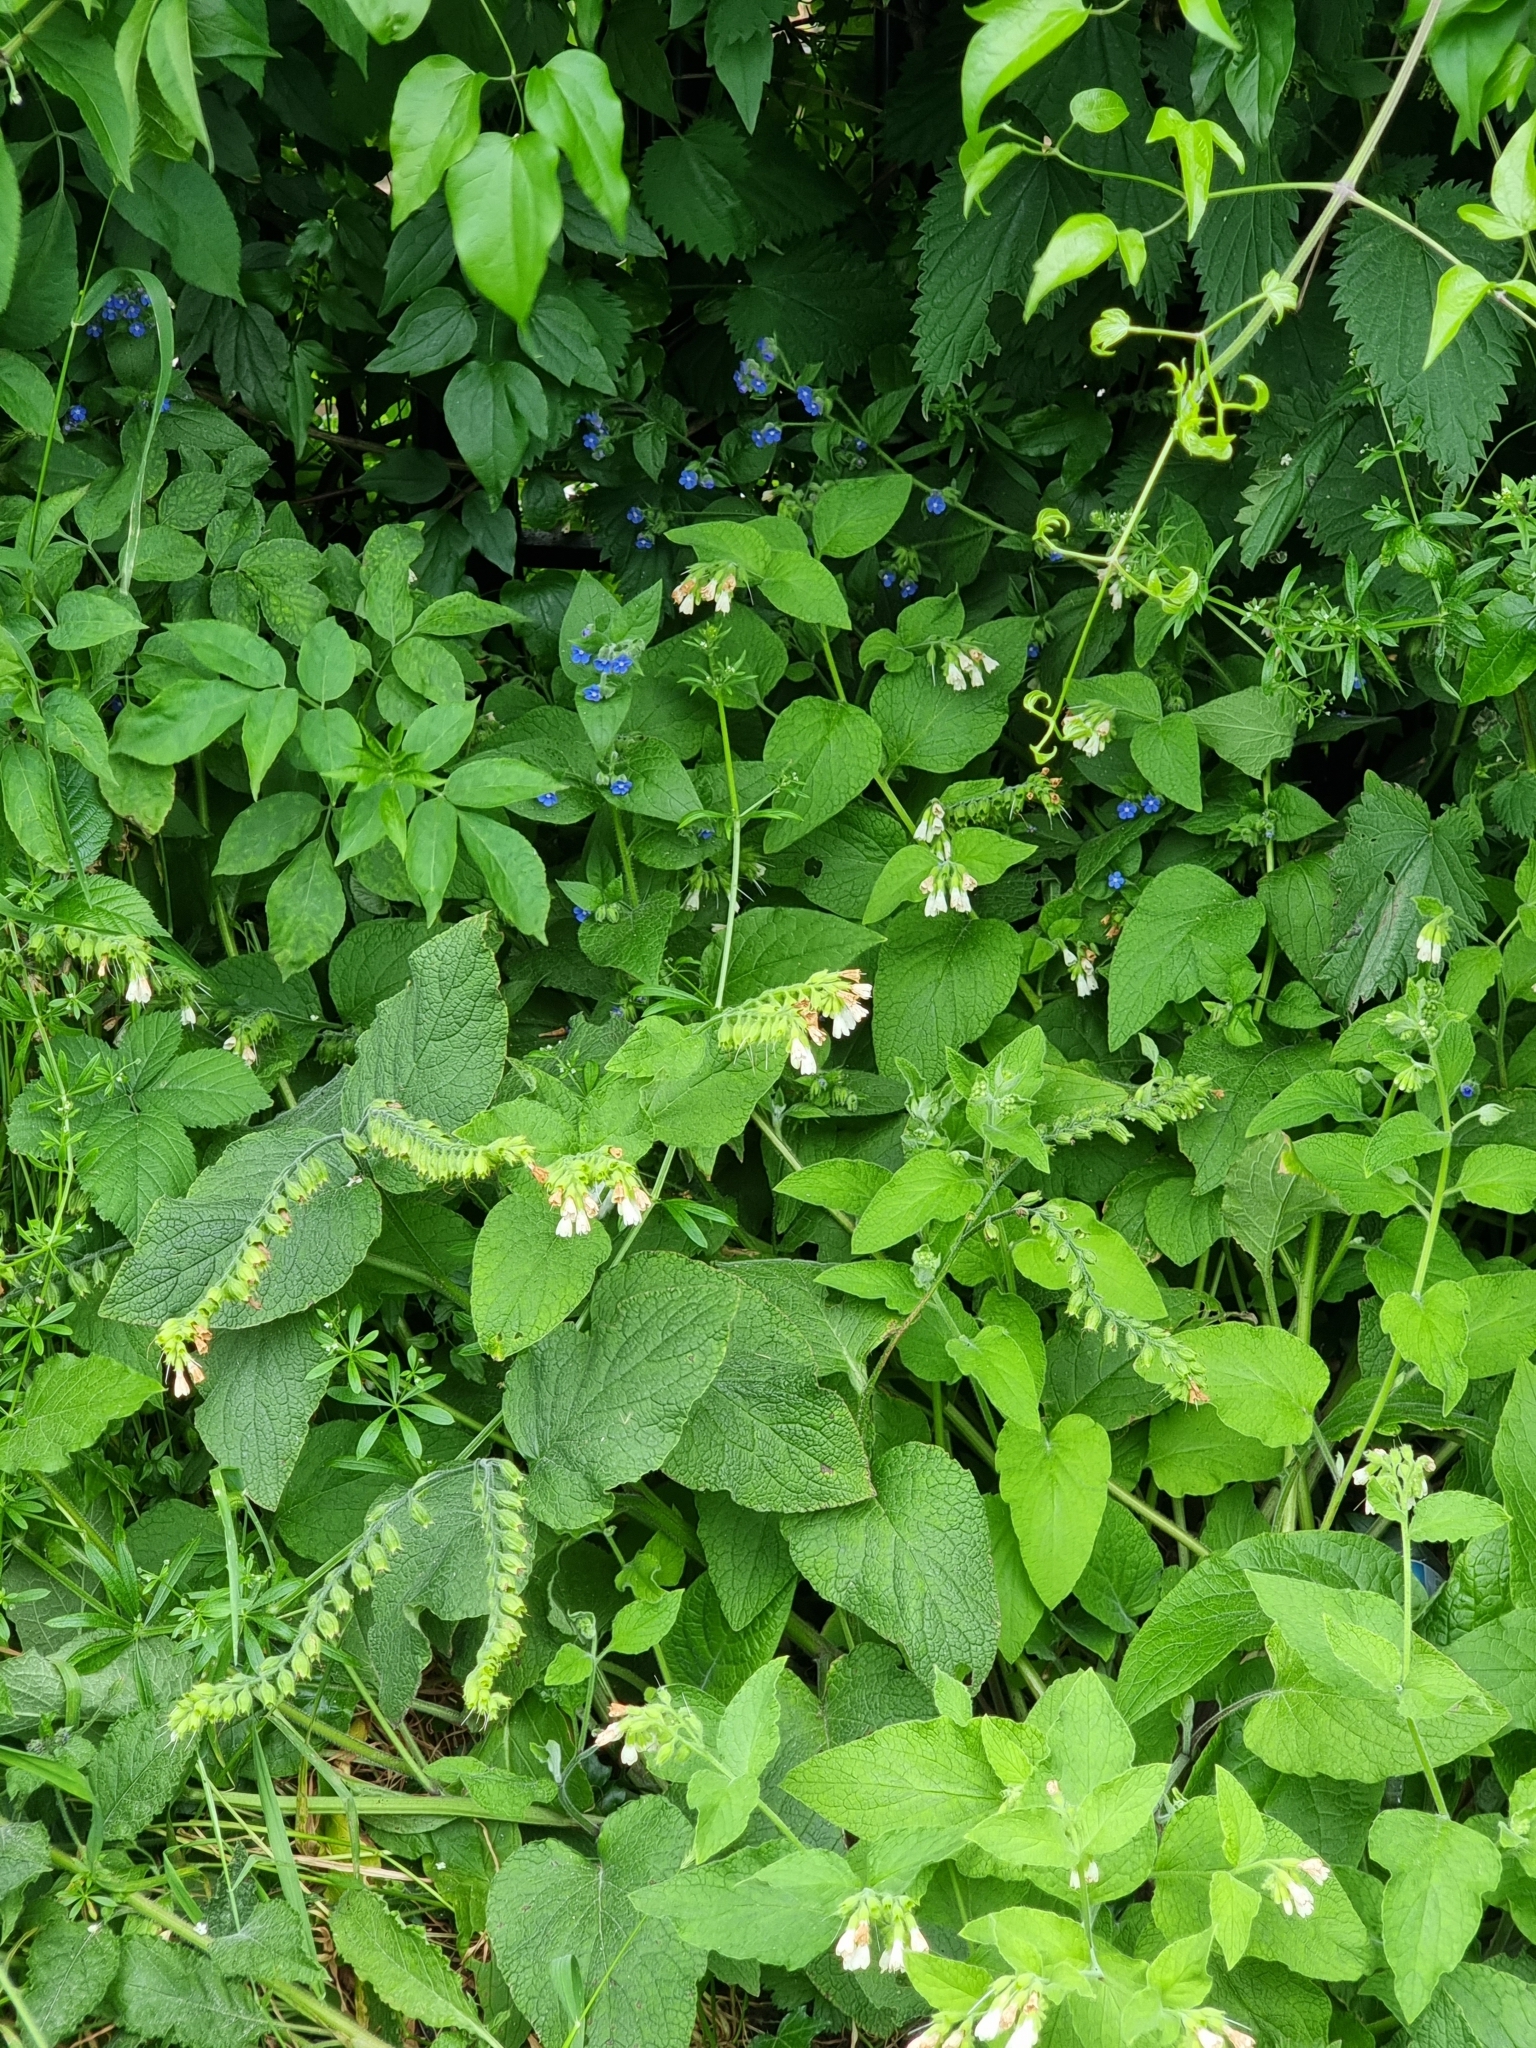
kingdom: Plantae
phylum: Tracheophyta
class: Magnoliopsida
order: Boraginales
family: Boraginaceae
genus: Symphytum
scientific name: Symphytum orientale
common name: White comfrey
